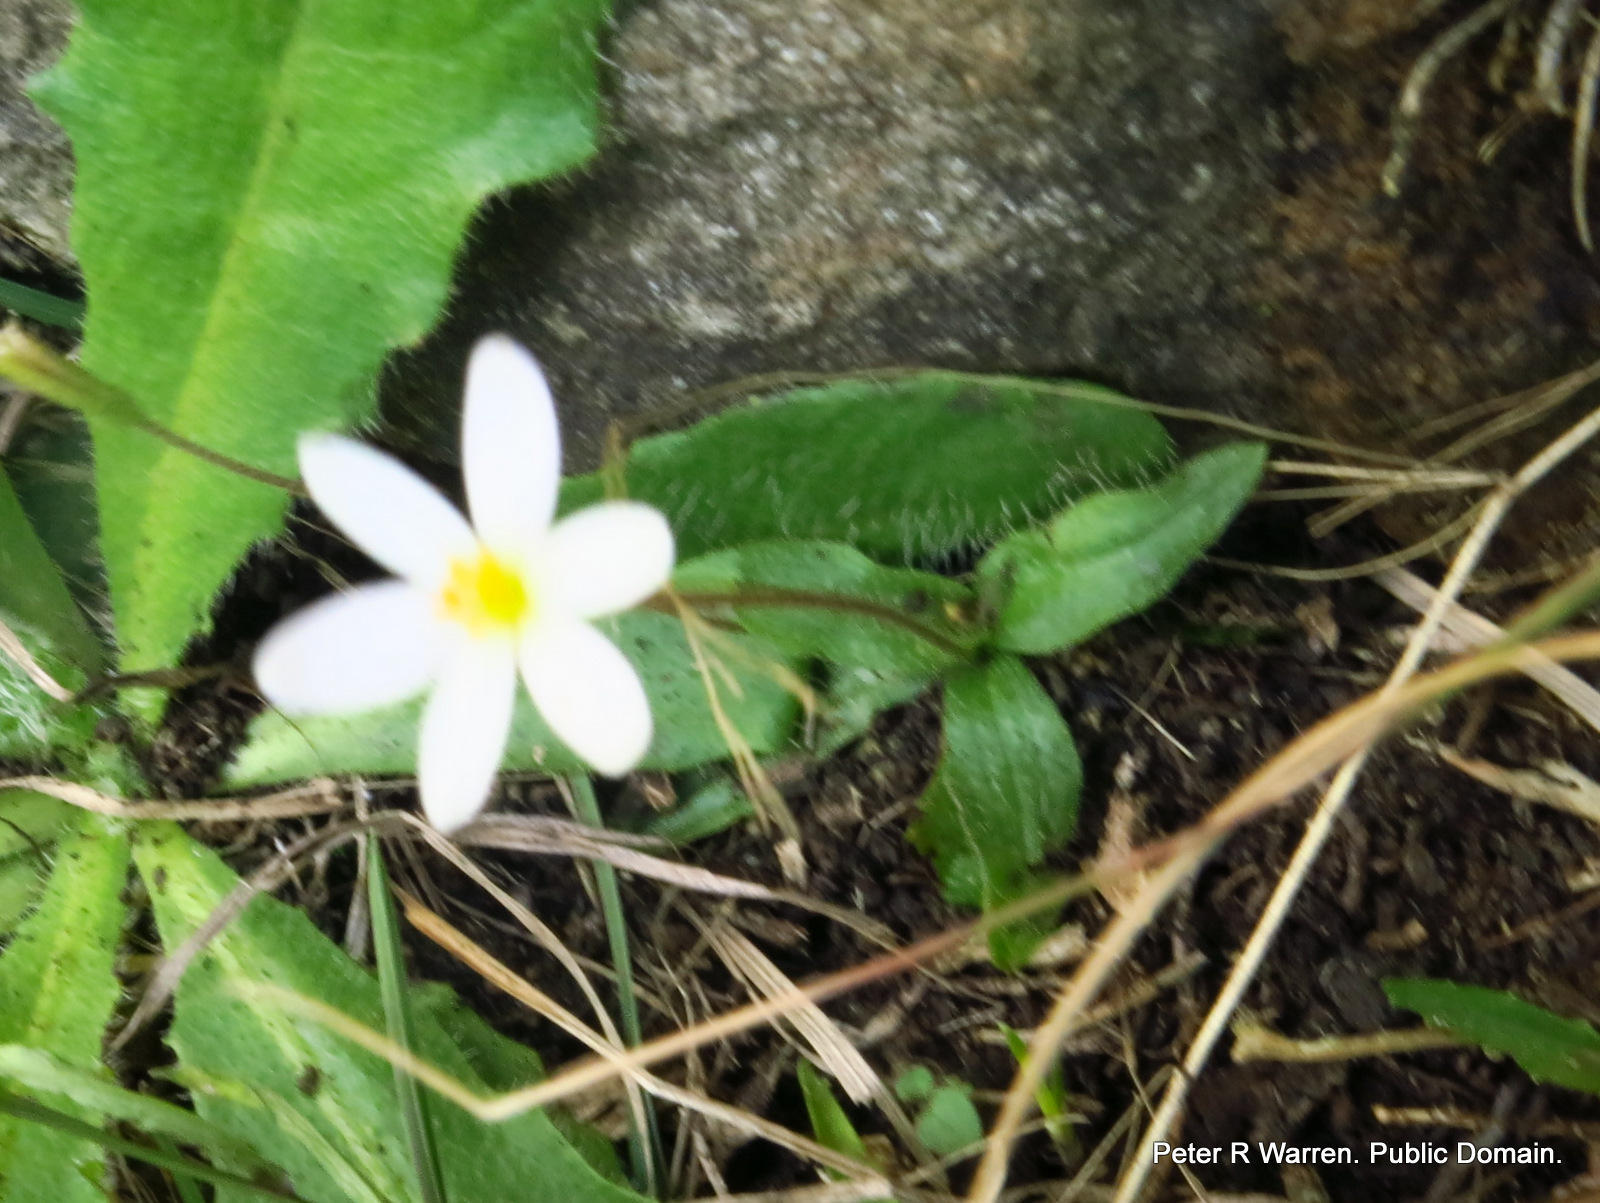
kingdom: Plantae
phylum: Tracheophyta
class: Liliopsida
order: Asparagales
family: Hypoxidaceae
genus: Hypoxis
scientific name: Hypoxis parvula
